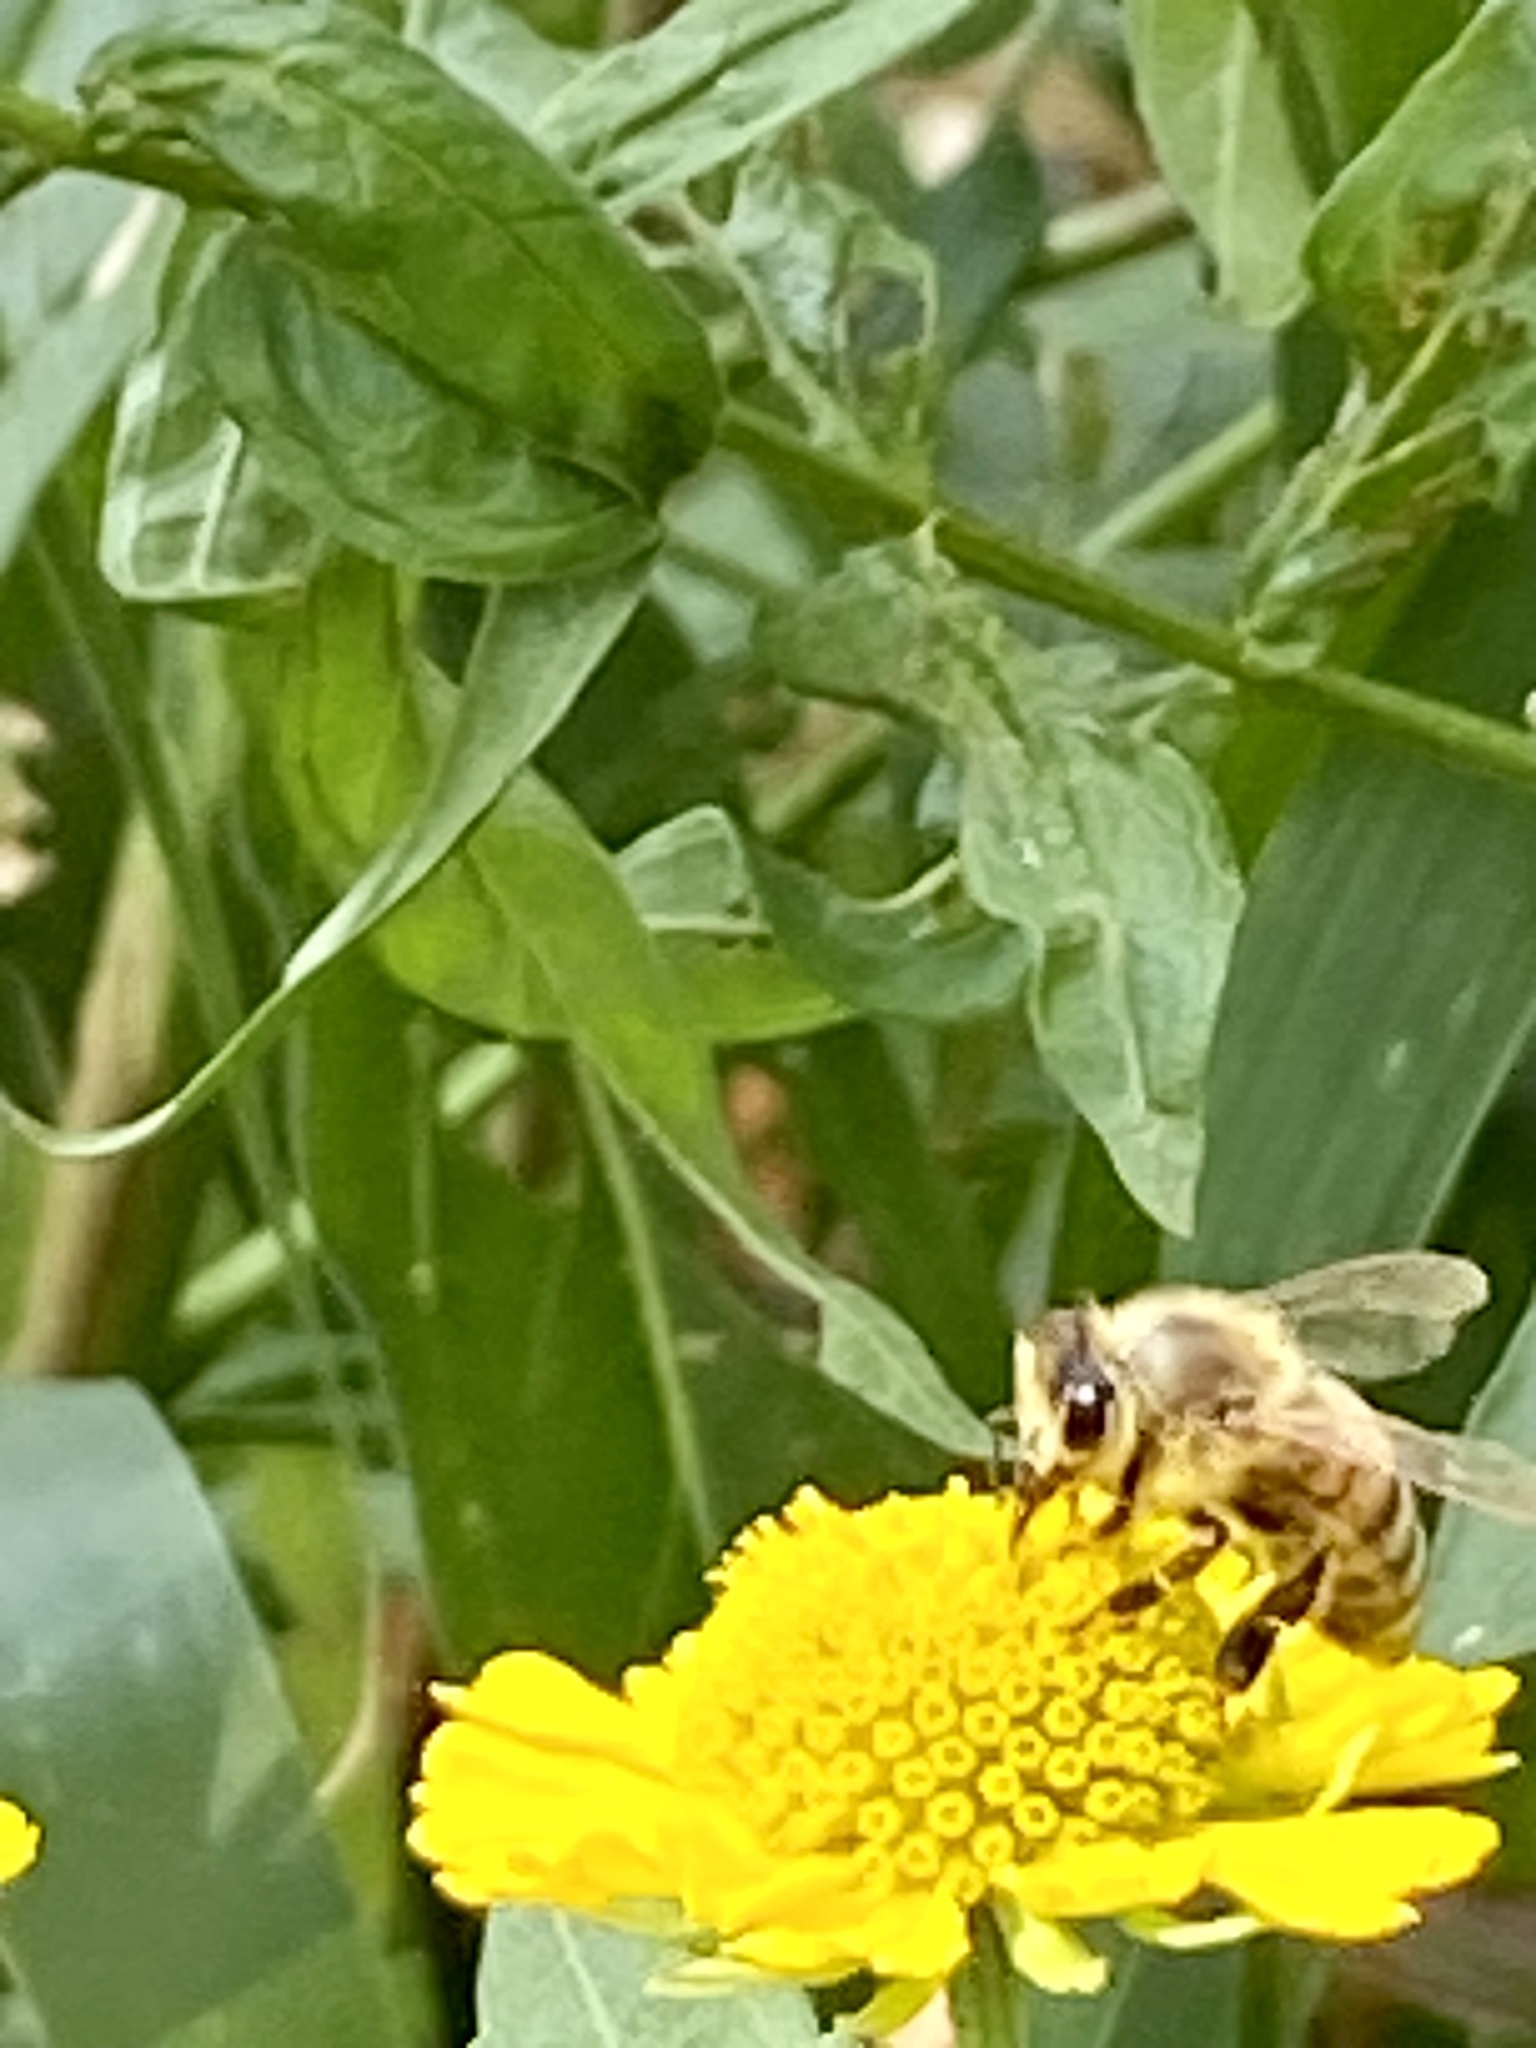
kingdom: Animalia
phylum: Arthropoda
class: Insecta
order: Hymenoptera
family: Apidae
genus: Apis
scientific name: Apis mellifera
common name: Honey bee
